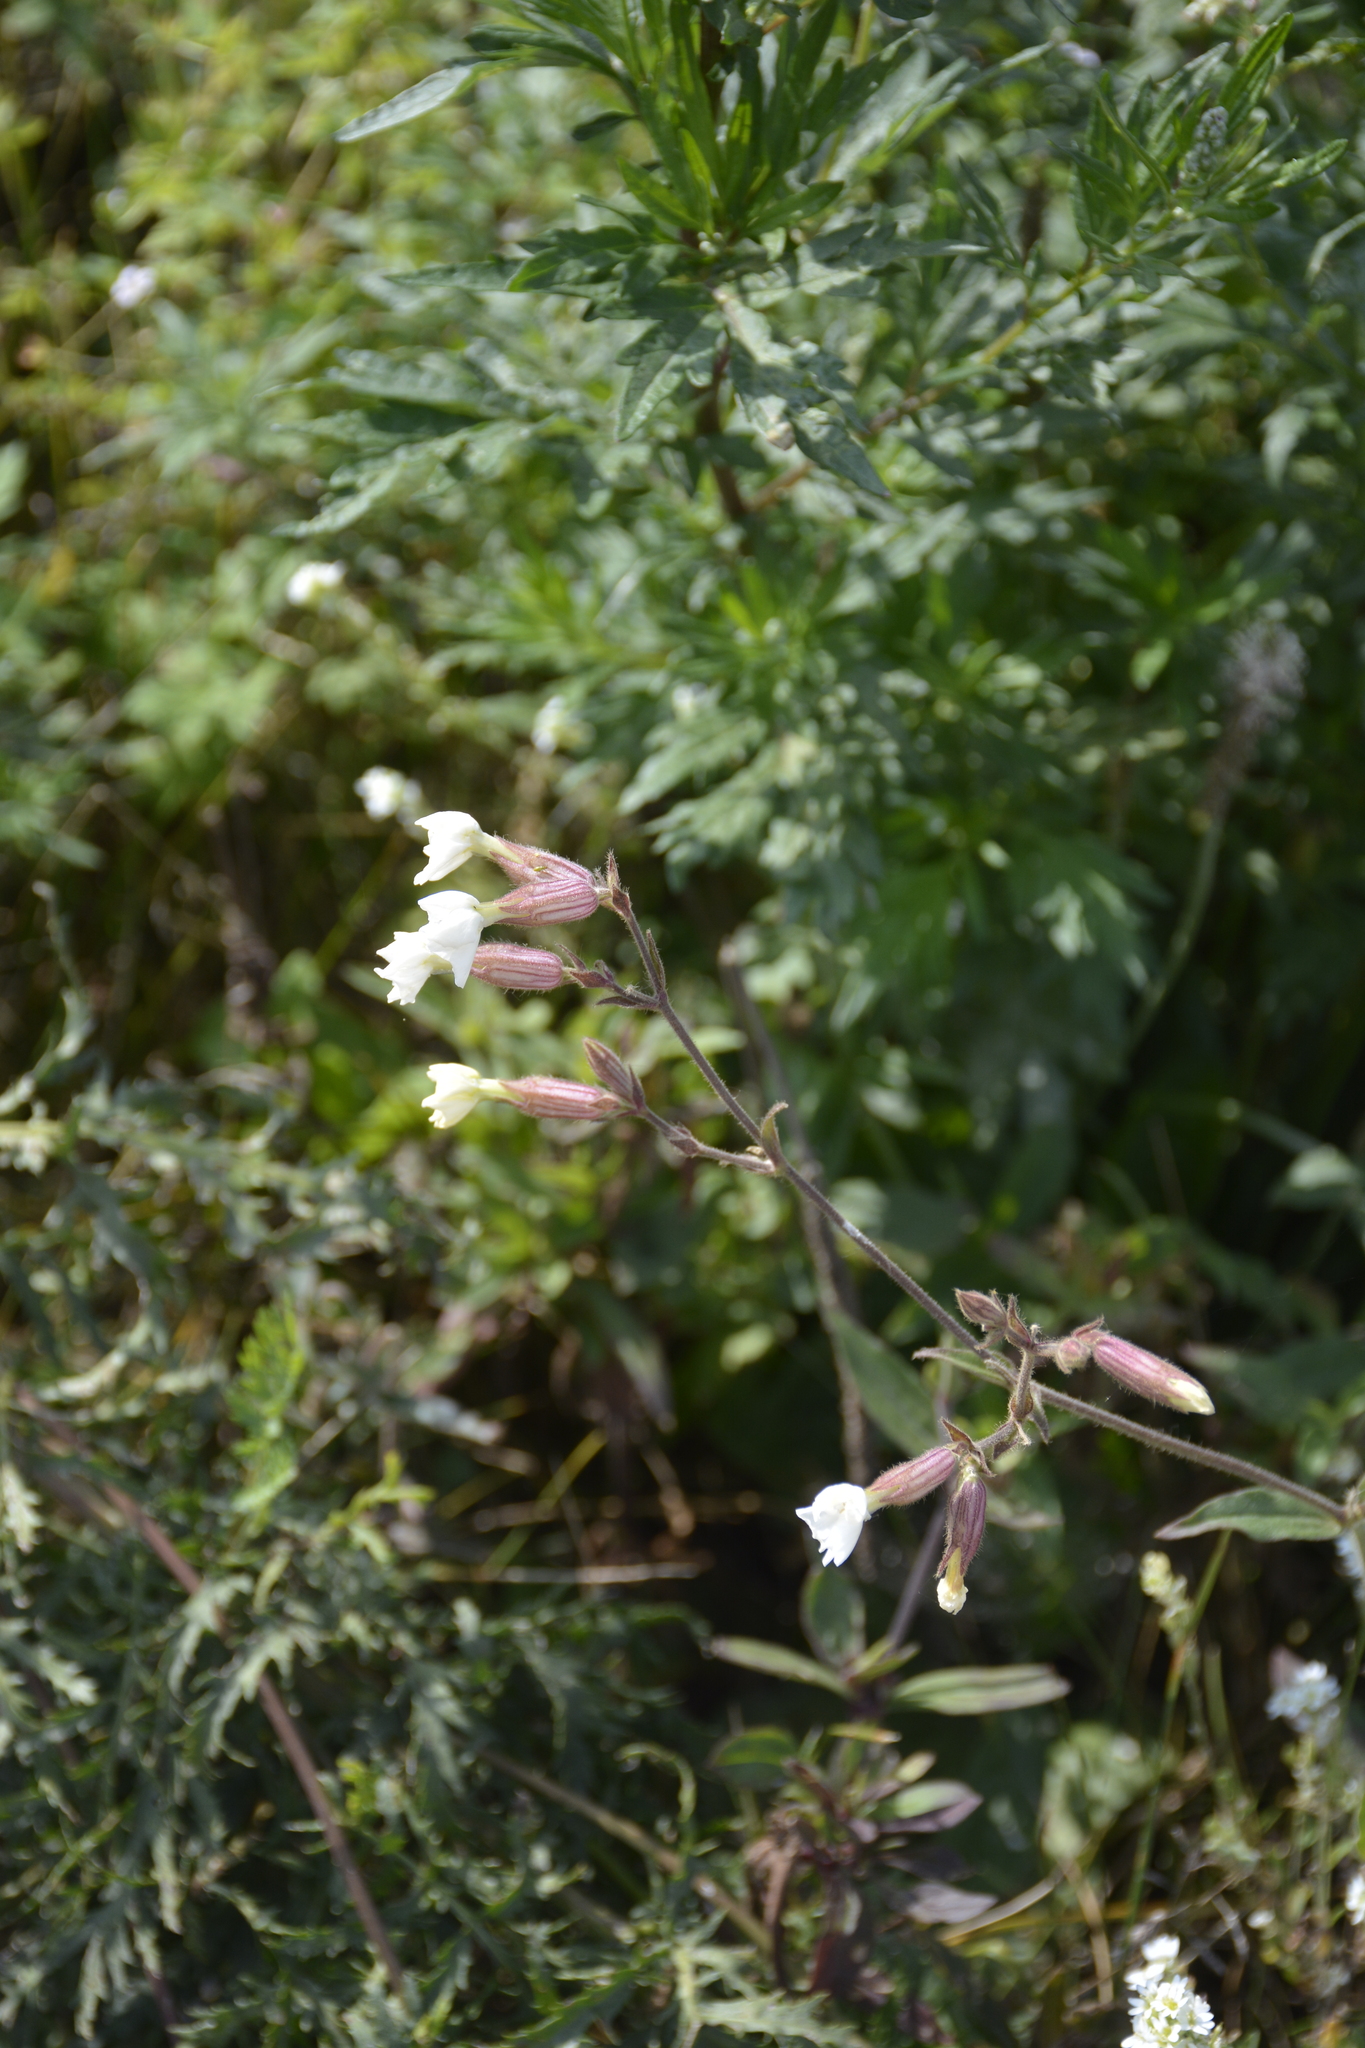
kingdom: Plantae
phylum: Tracheophyta
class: Magnoliopsida
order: Caryophyllales
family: Caryophyllaceae
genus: Silene
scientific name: Silene latifolia
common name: White campion
